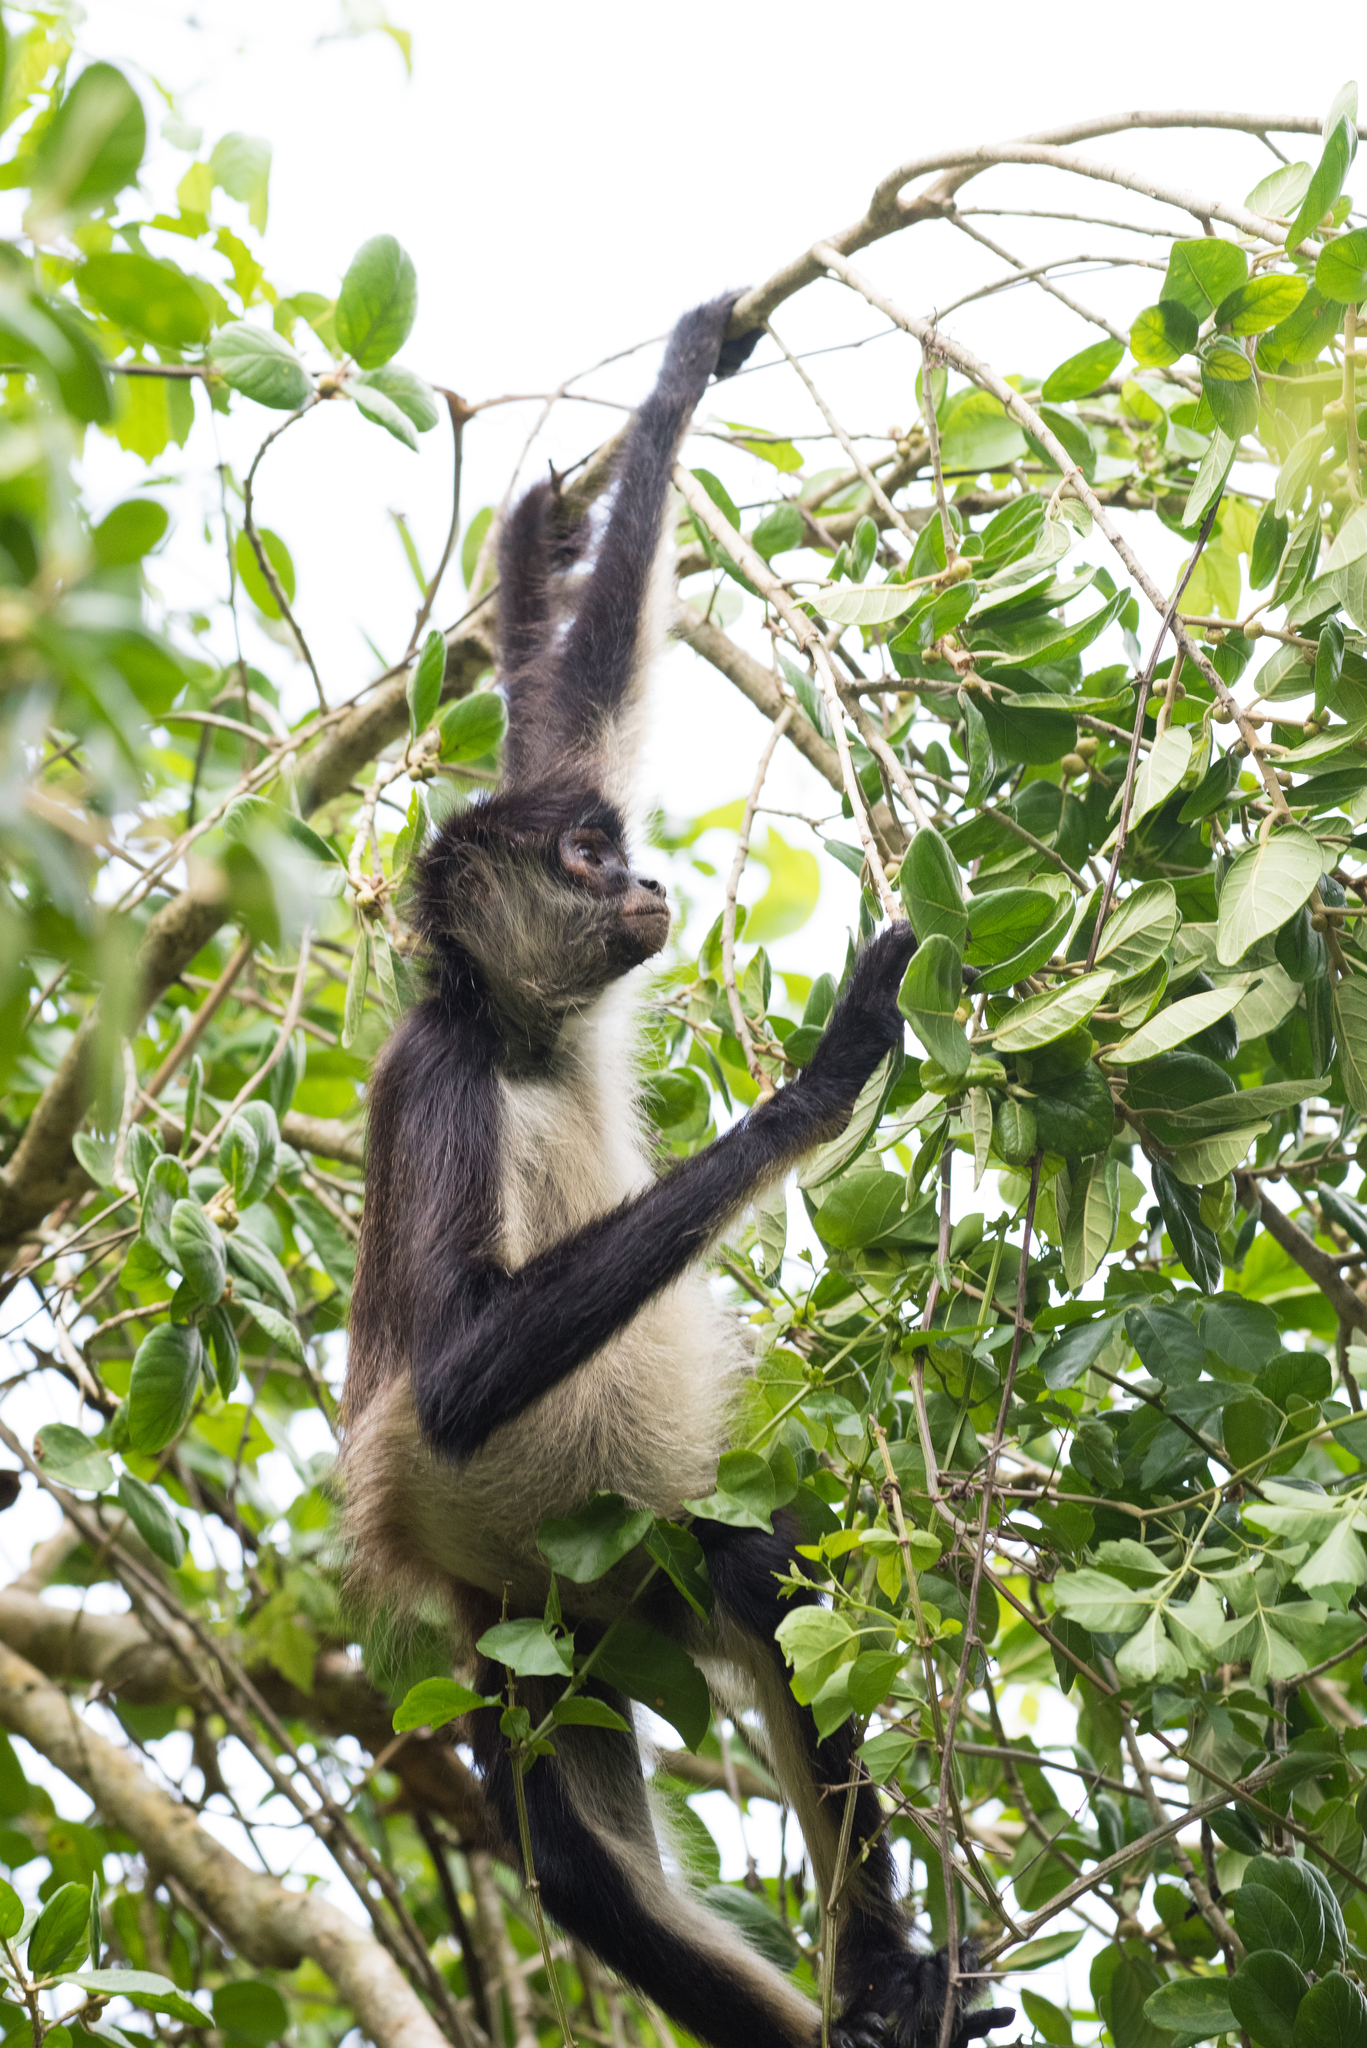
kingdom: Animalia
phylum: Chordata
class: Mammalia
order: Primates
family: Atelidae
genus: Ateles
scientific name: Ateles geoffroyi
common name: Black-handed spider monkey
